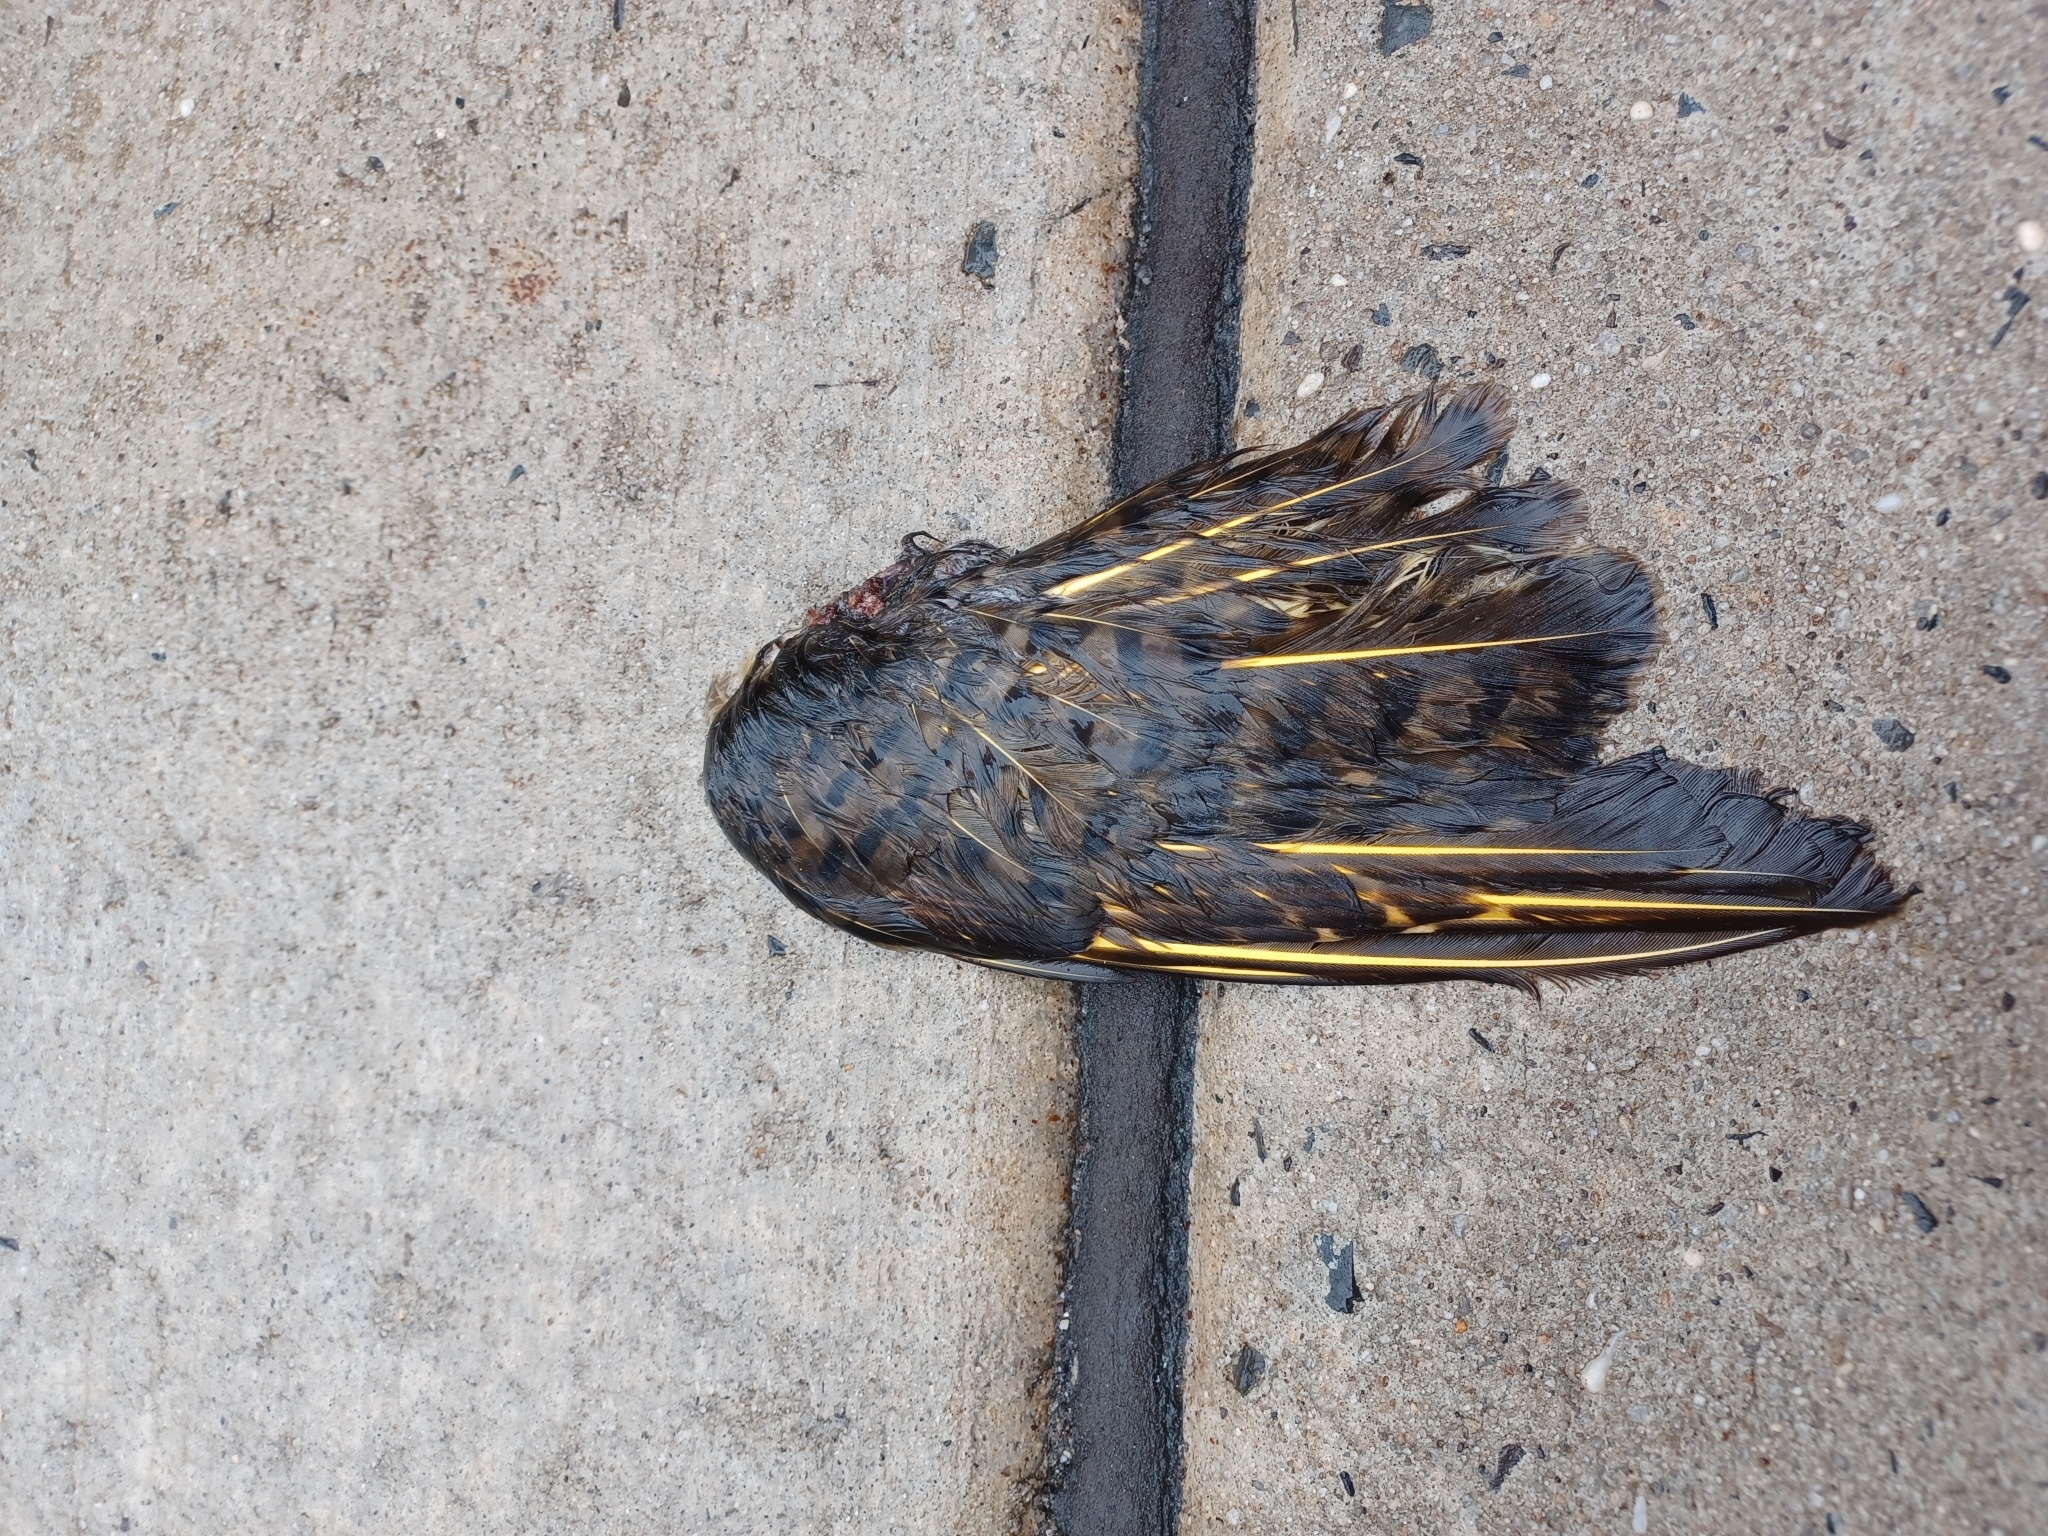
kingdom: Animalia
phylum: Chordata
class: Aves
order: Piciformes
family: Picidae
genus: Colaptes
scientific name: Colaptes auratus
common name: Northern flicker
